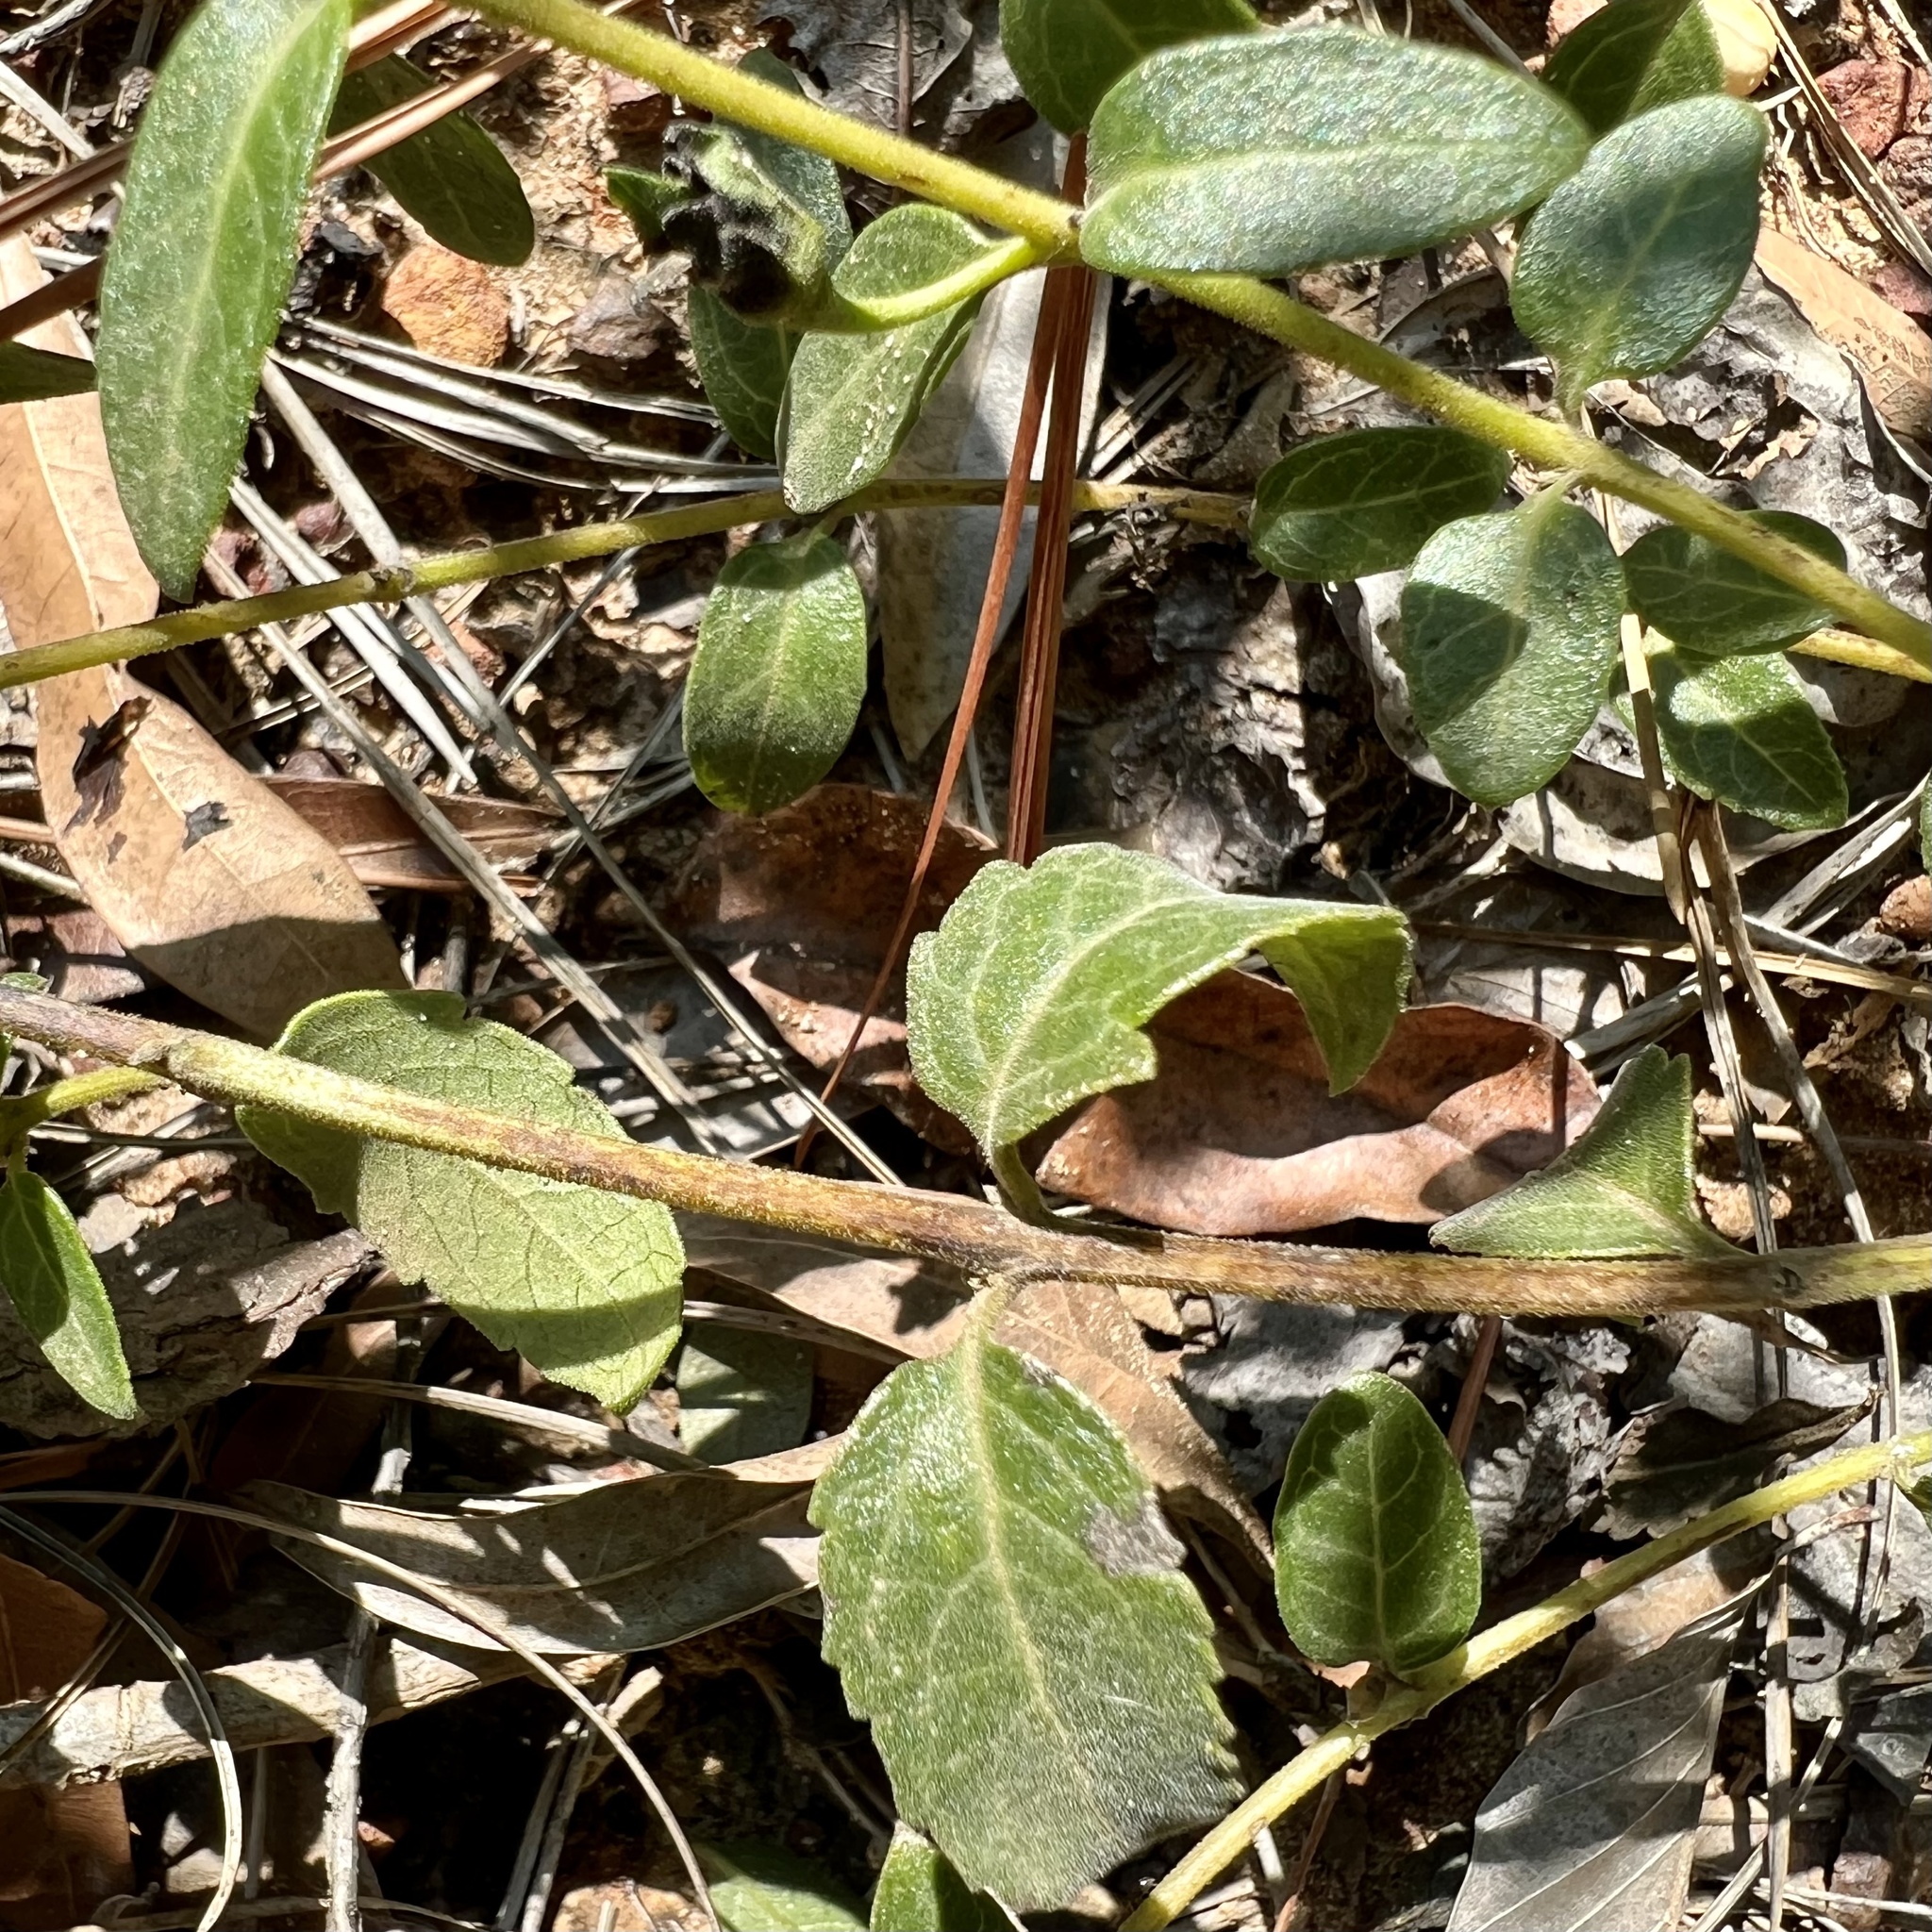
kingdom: Plantae
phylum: Tracheophyta
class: Magnoliopsida
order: Lamiales
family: Orobanchaceae
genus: Aureolaria
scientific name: Aureolaria grandiflora
